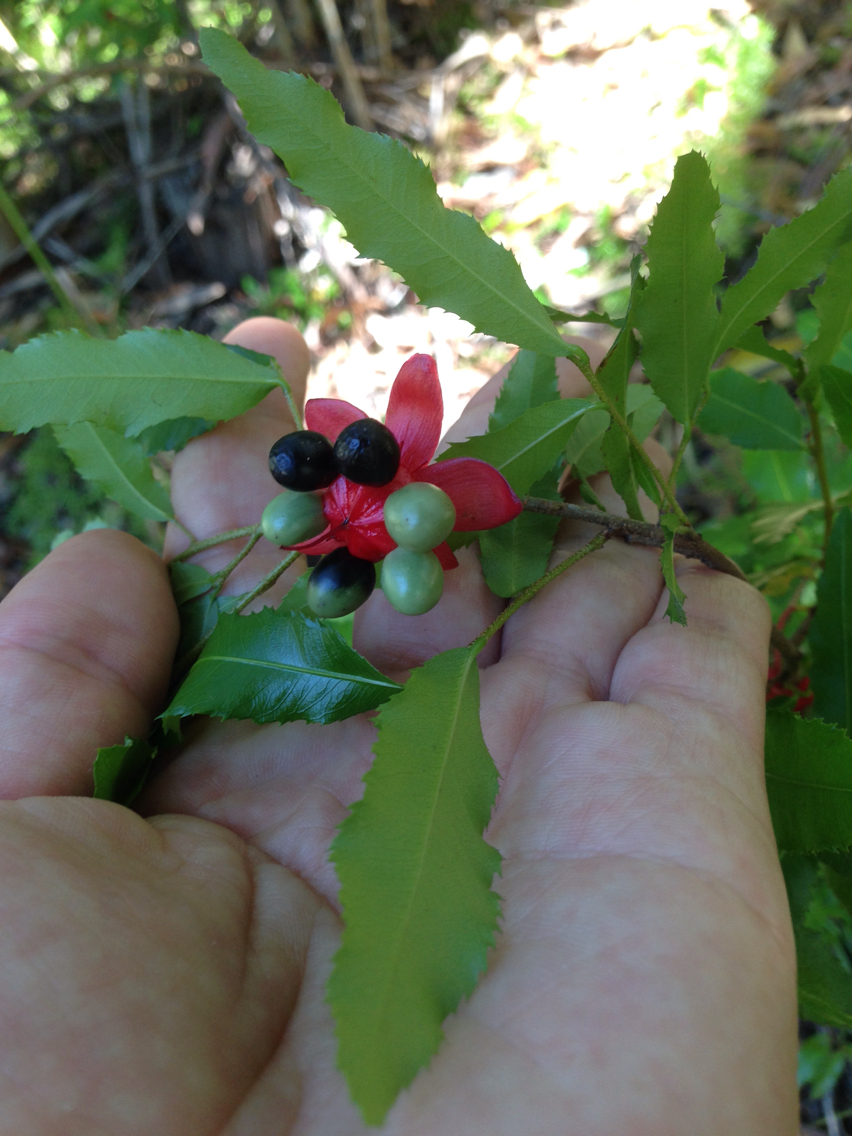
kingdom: Plantae
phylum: Tracheophyta
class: Magnoliopsida
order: Malpighiales
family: Ochnaceae
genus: Ochna
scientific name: Ochna serrulata
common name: Mickey mouse plant
